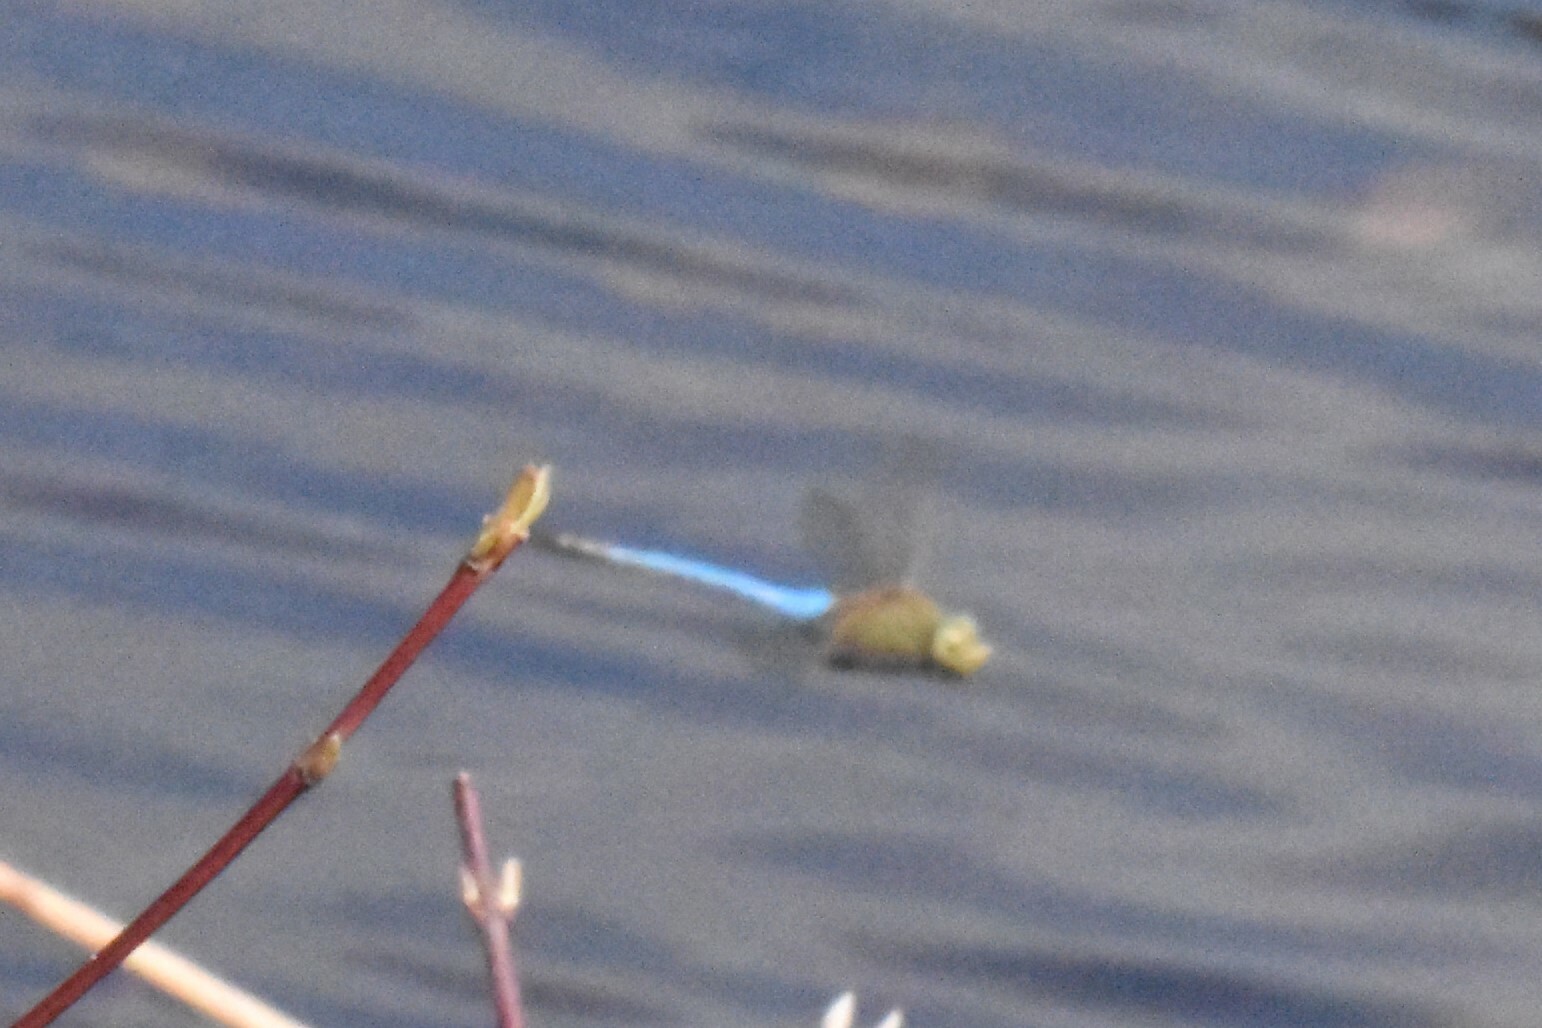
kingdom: Animalia
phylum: Arthropoda
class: Insecta
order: Odonata
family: Aeshnidae
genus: Anax
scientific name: Anax junius
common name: Common green darner
